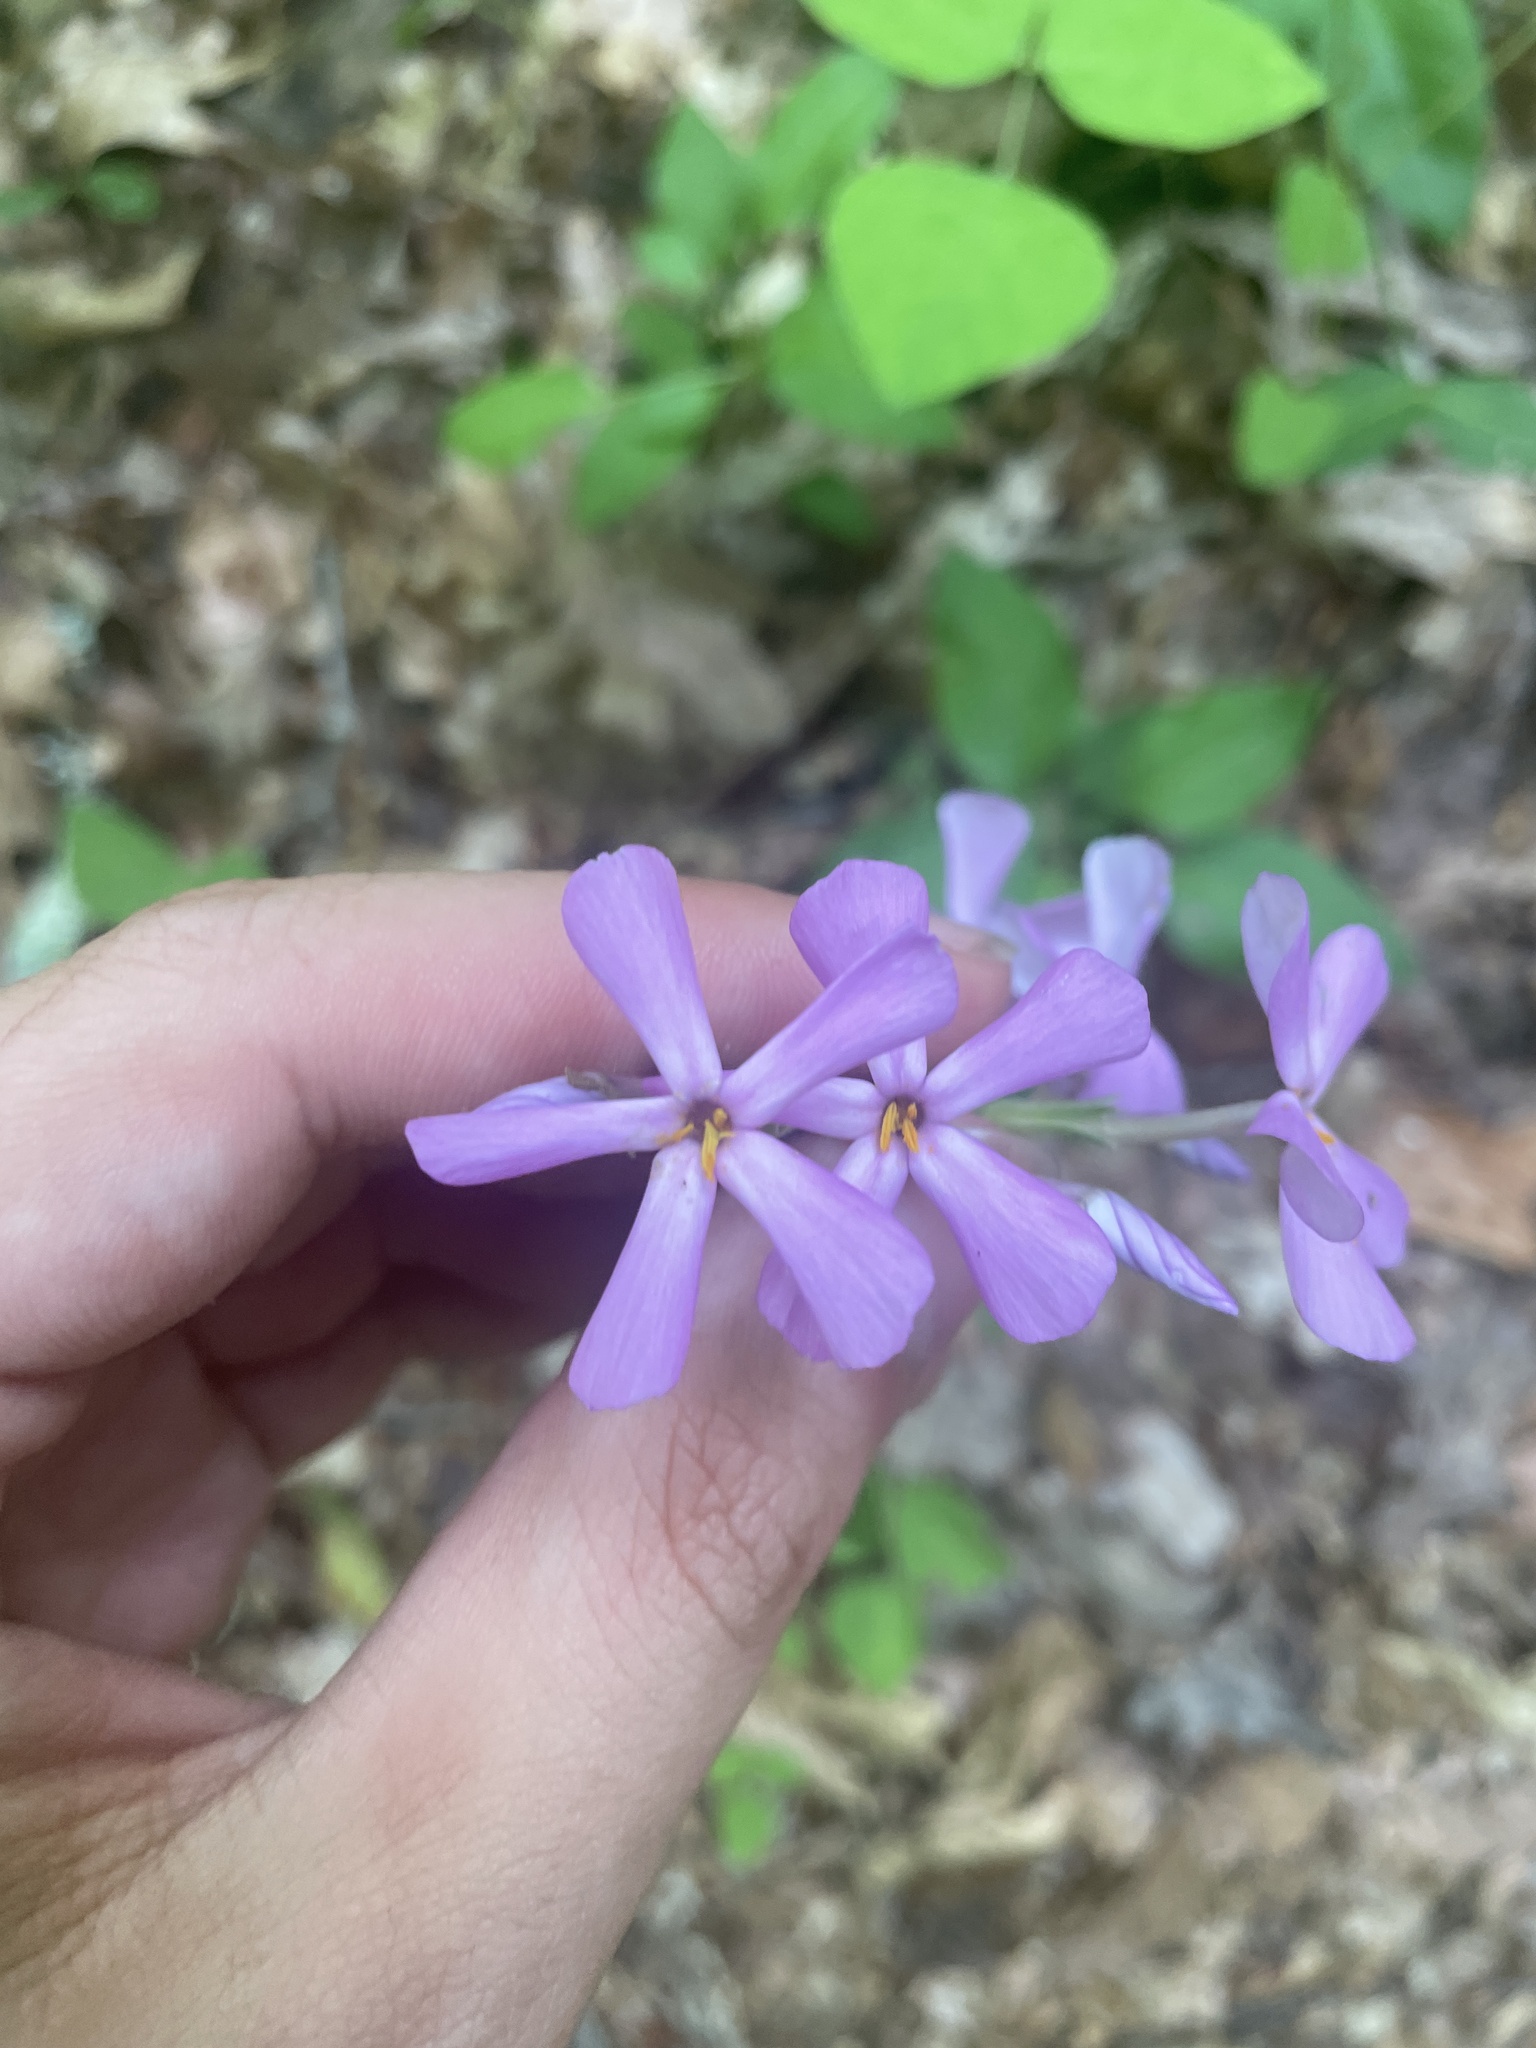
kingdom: Plantae
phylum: Tracheophyta
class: Magnoliopsida
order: Ericales
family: Polemoniaceae
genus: Phlox
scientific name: Phlox carolina
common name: Thick-leaf phlox
